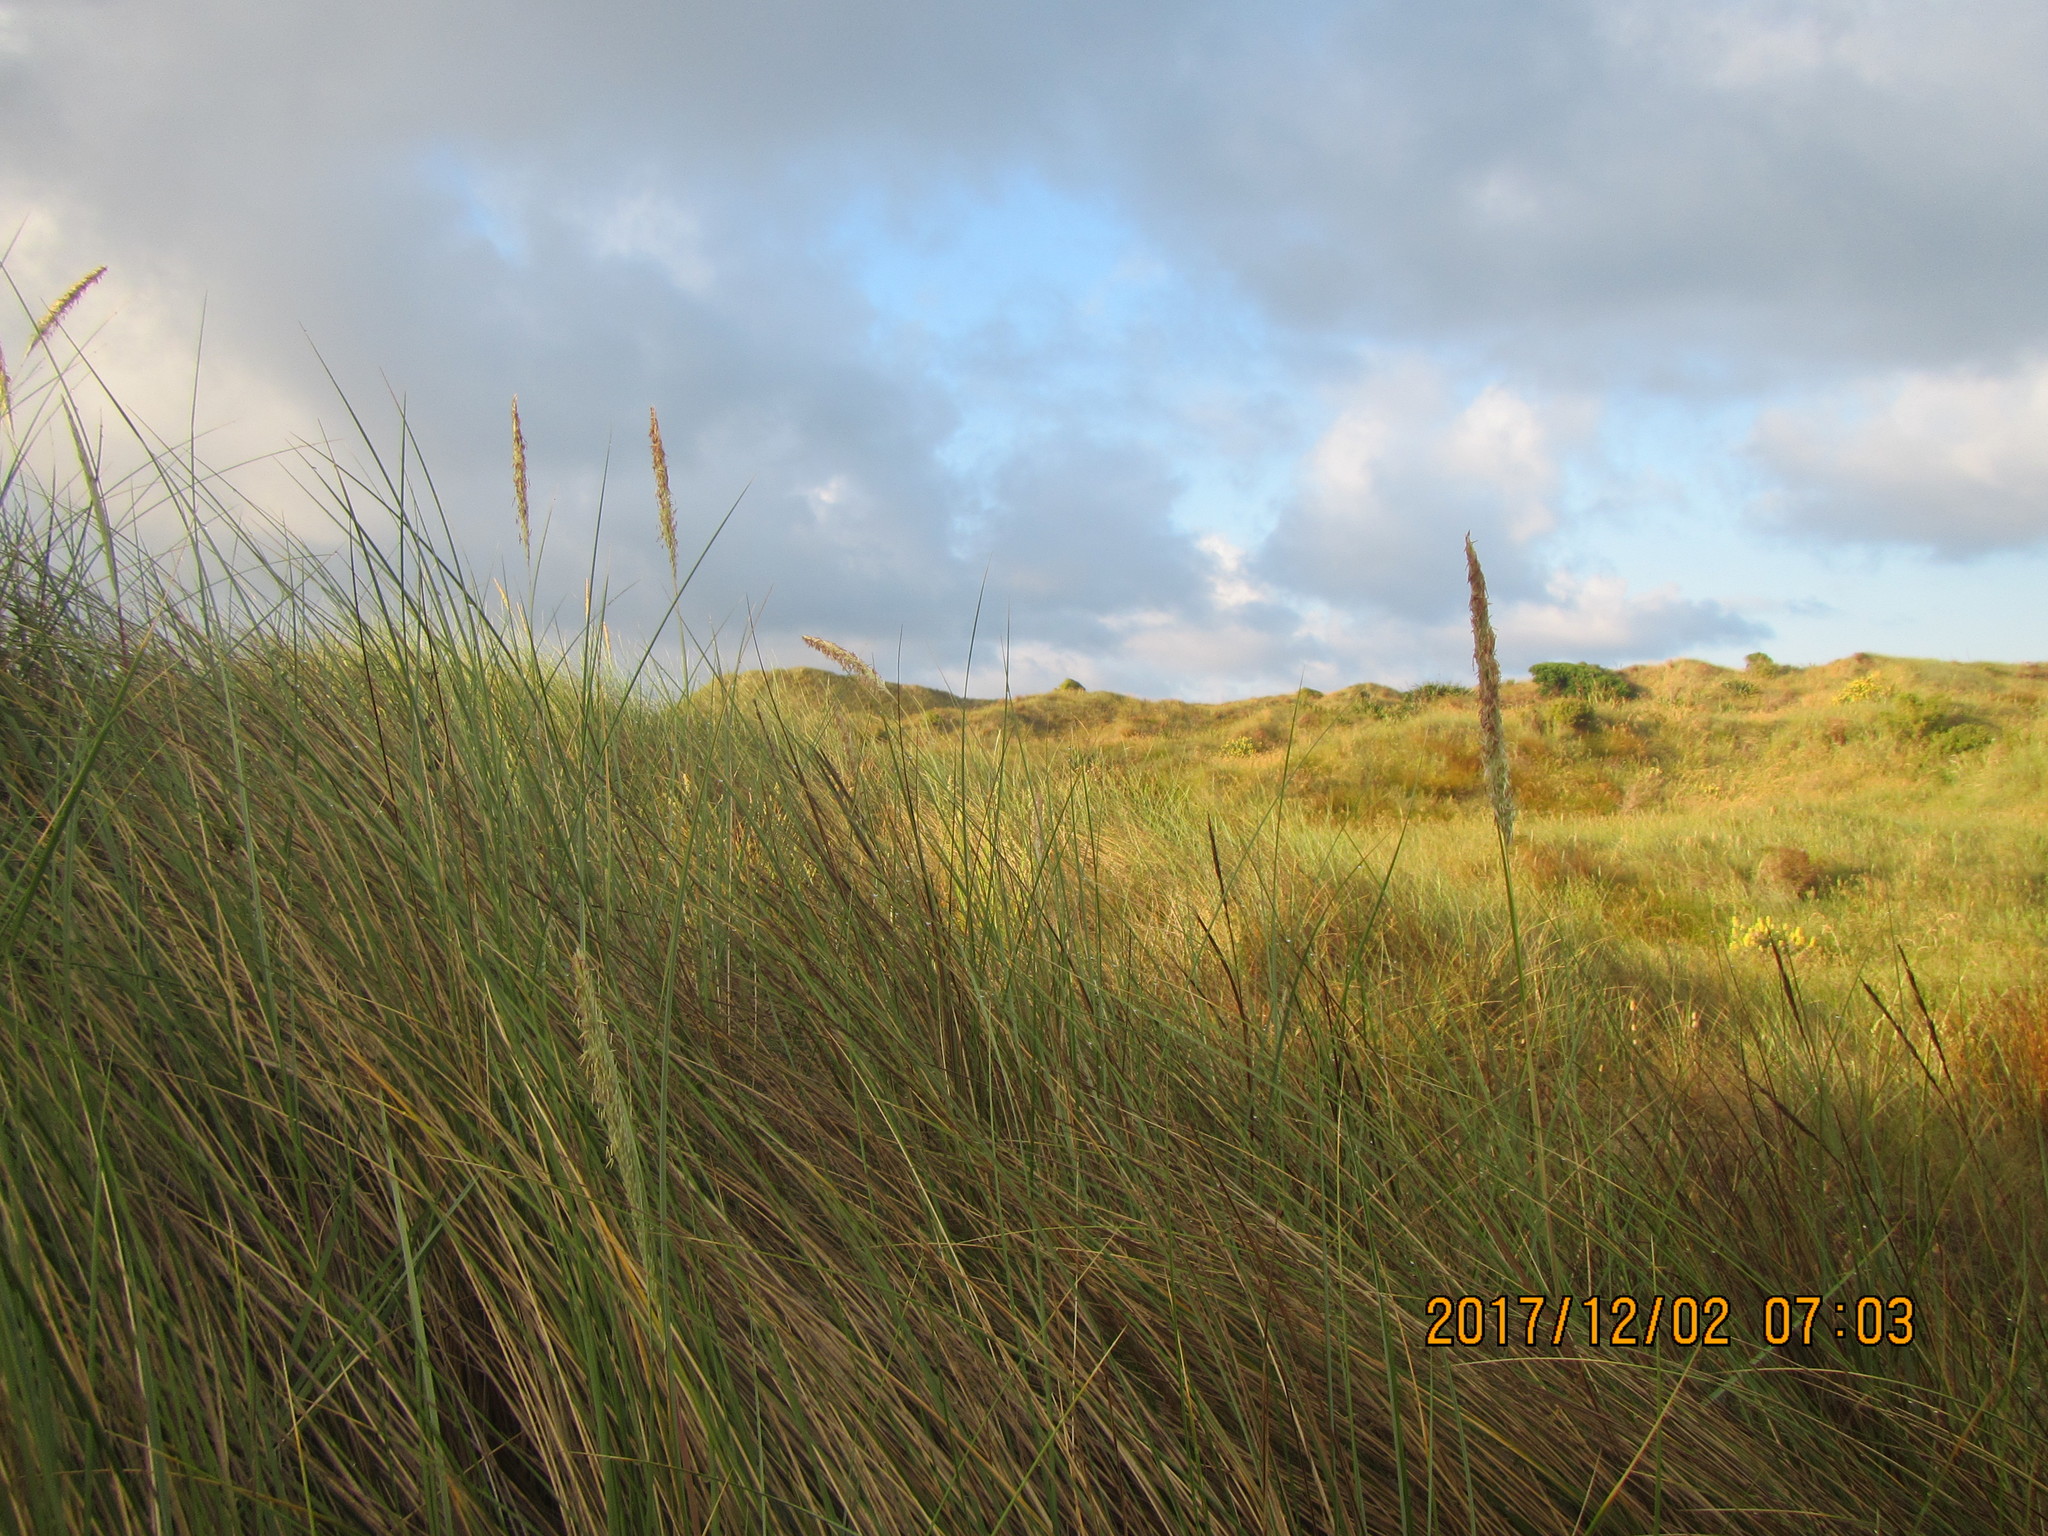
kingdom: Plantae
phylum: Tracheophyta
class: Liliopsida
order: Poales
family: Poaceae
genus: Calamagrostis
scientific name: Calamagrostis arenaria
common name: European beachgrass
